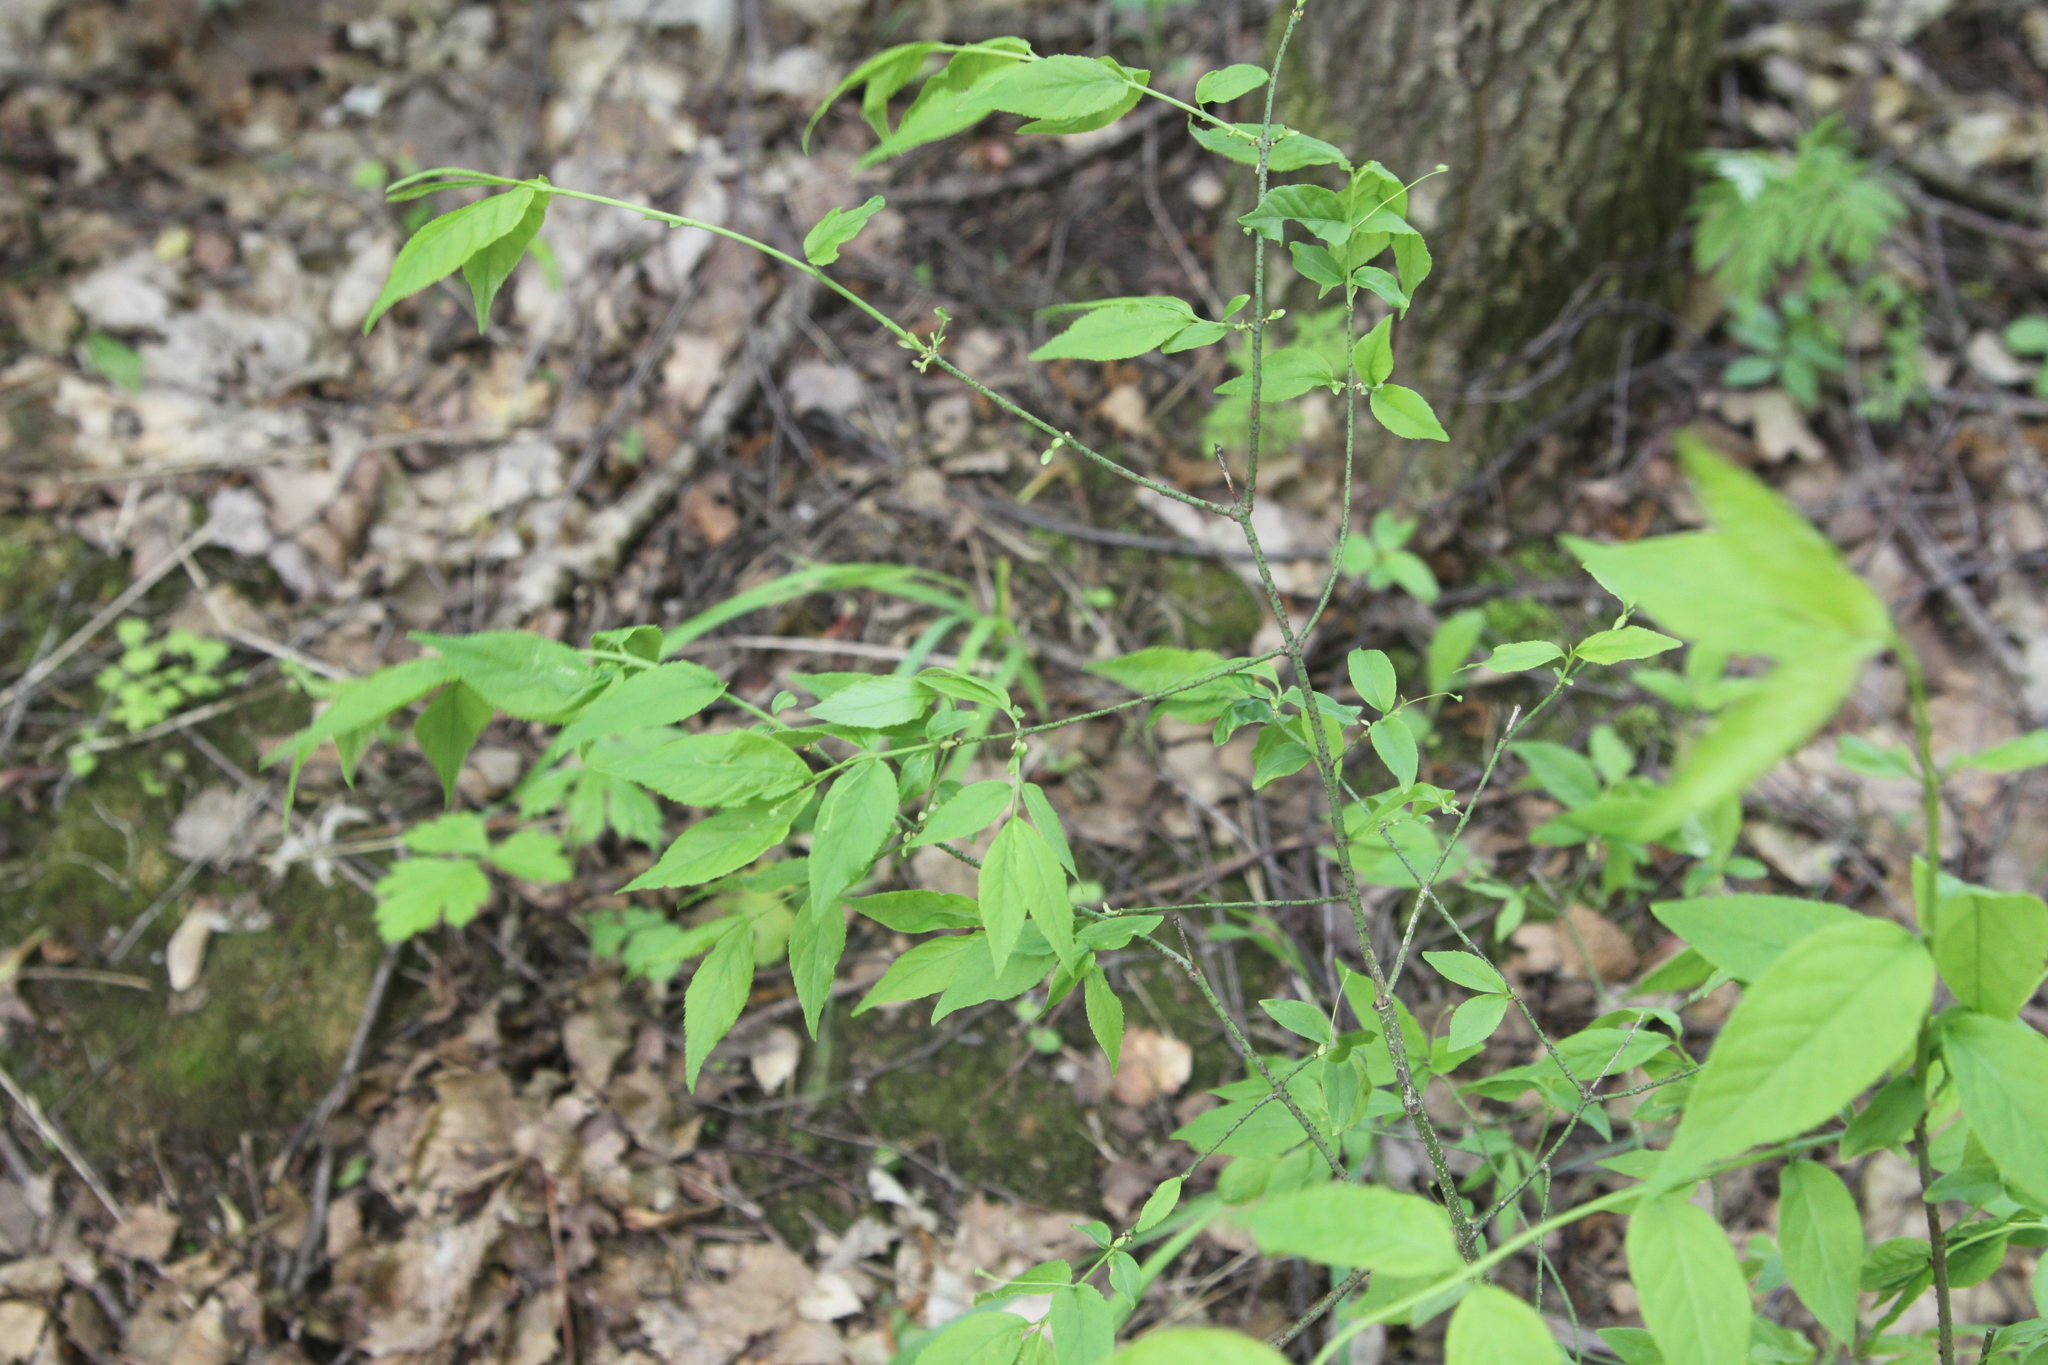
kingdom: Plantae
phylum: Tracheophyta
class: Magnoliopsida
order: Celastrales
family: Celastraceae
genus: Euonymus
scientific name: Euonymus verrucosus
